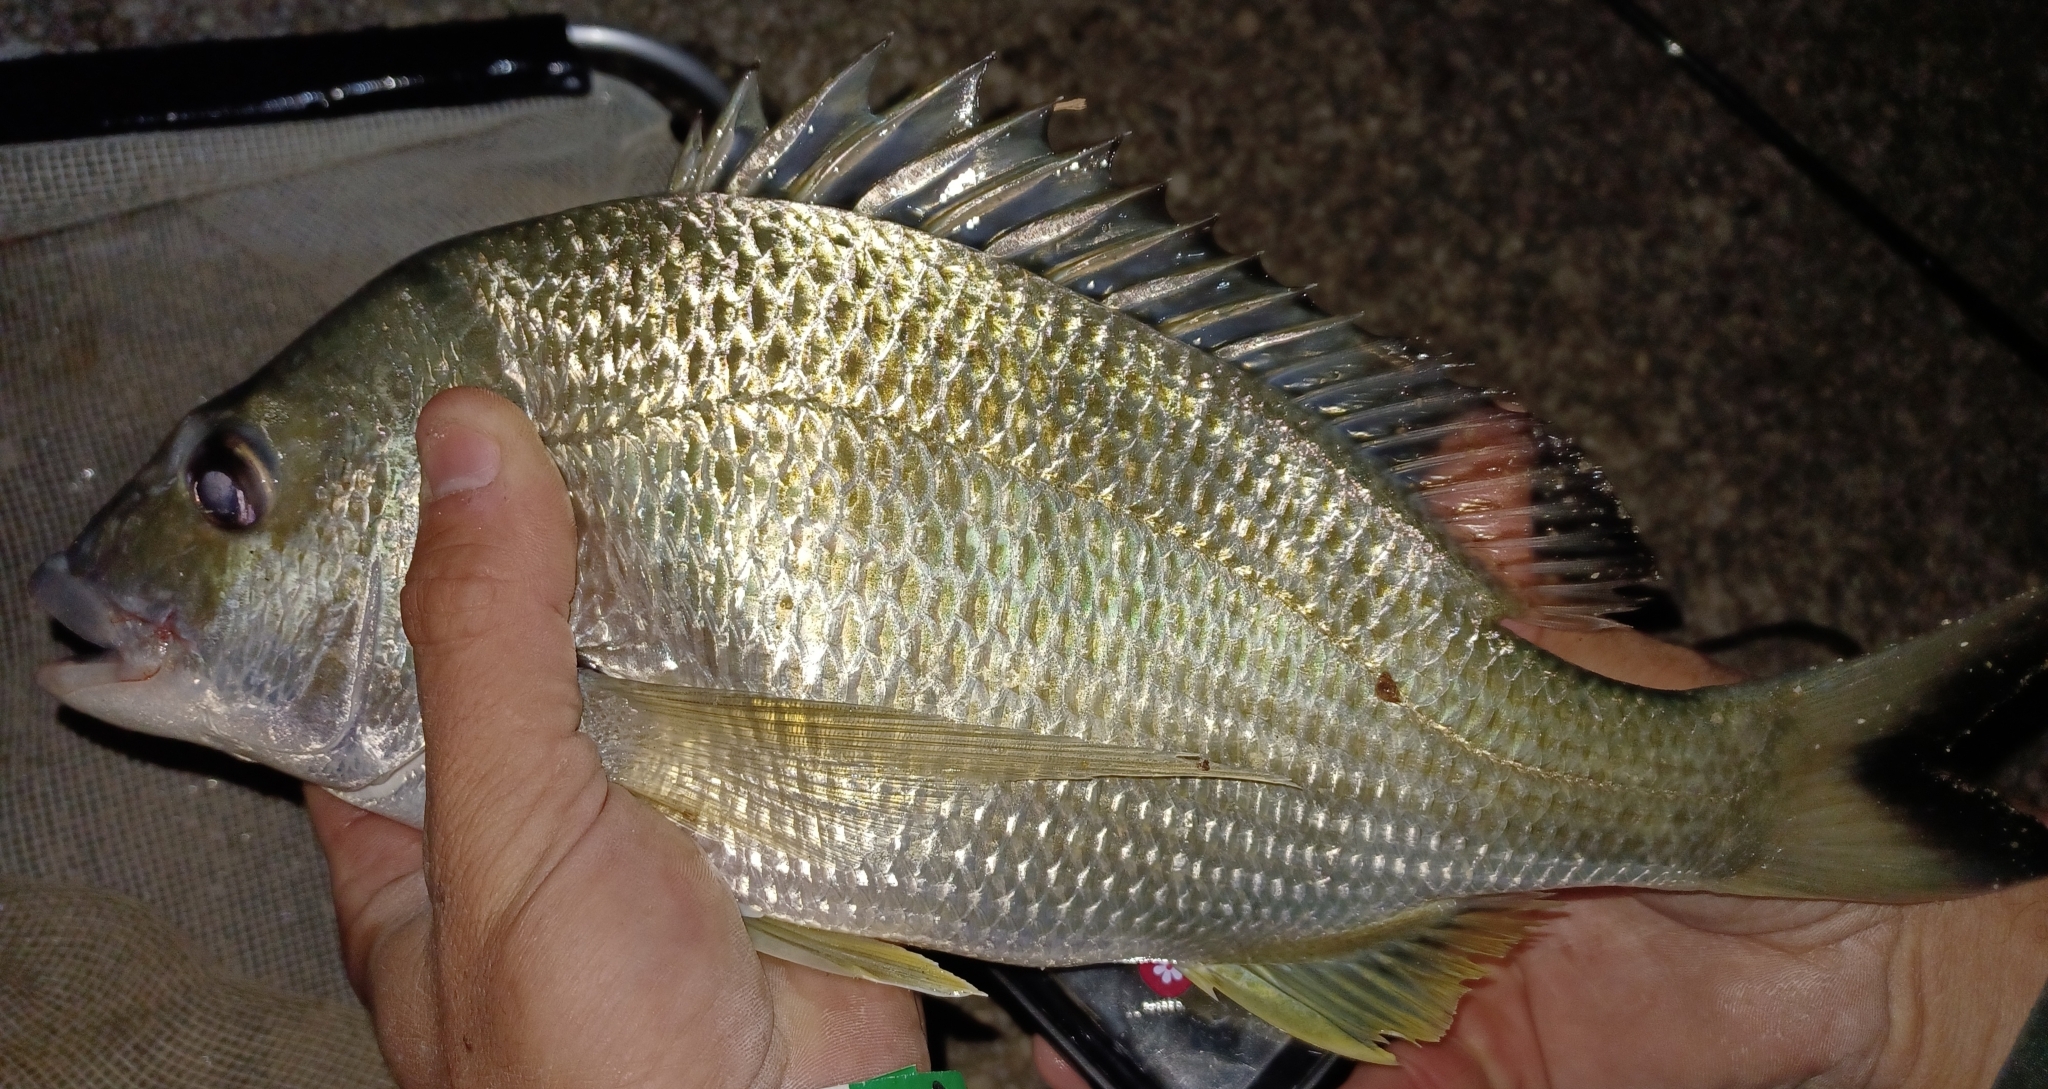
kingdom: Animalia
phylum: Chordata
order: Perciformes
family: Sparidae
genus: Acanthopagrus
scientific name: Acanthopagrus australis
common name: Surf bream
